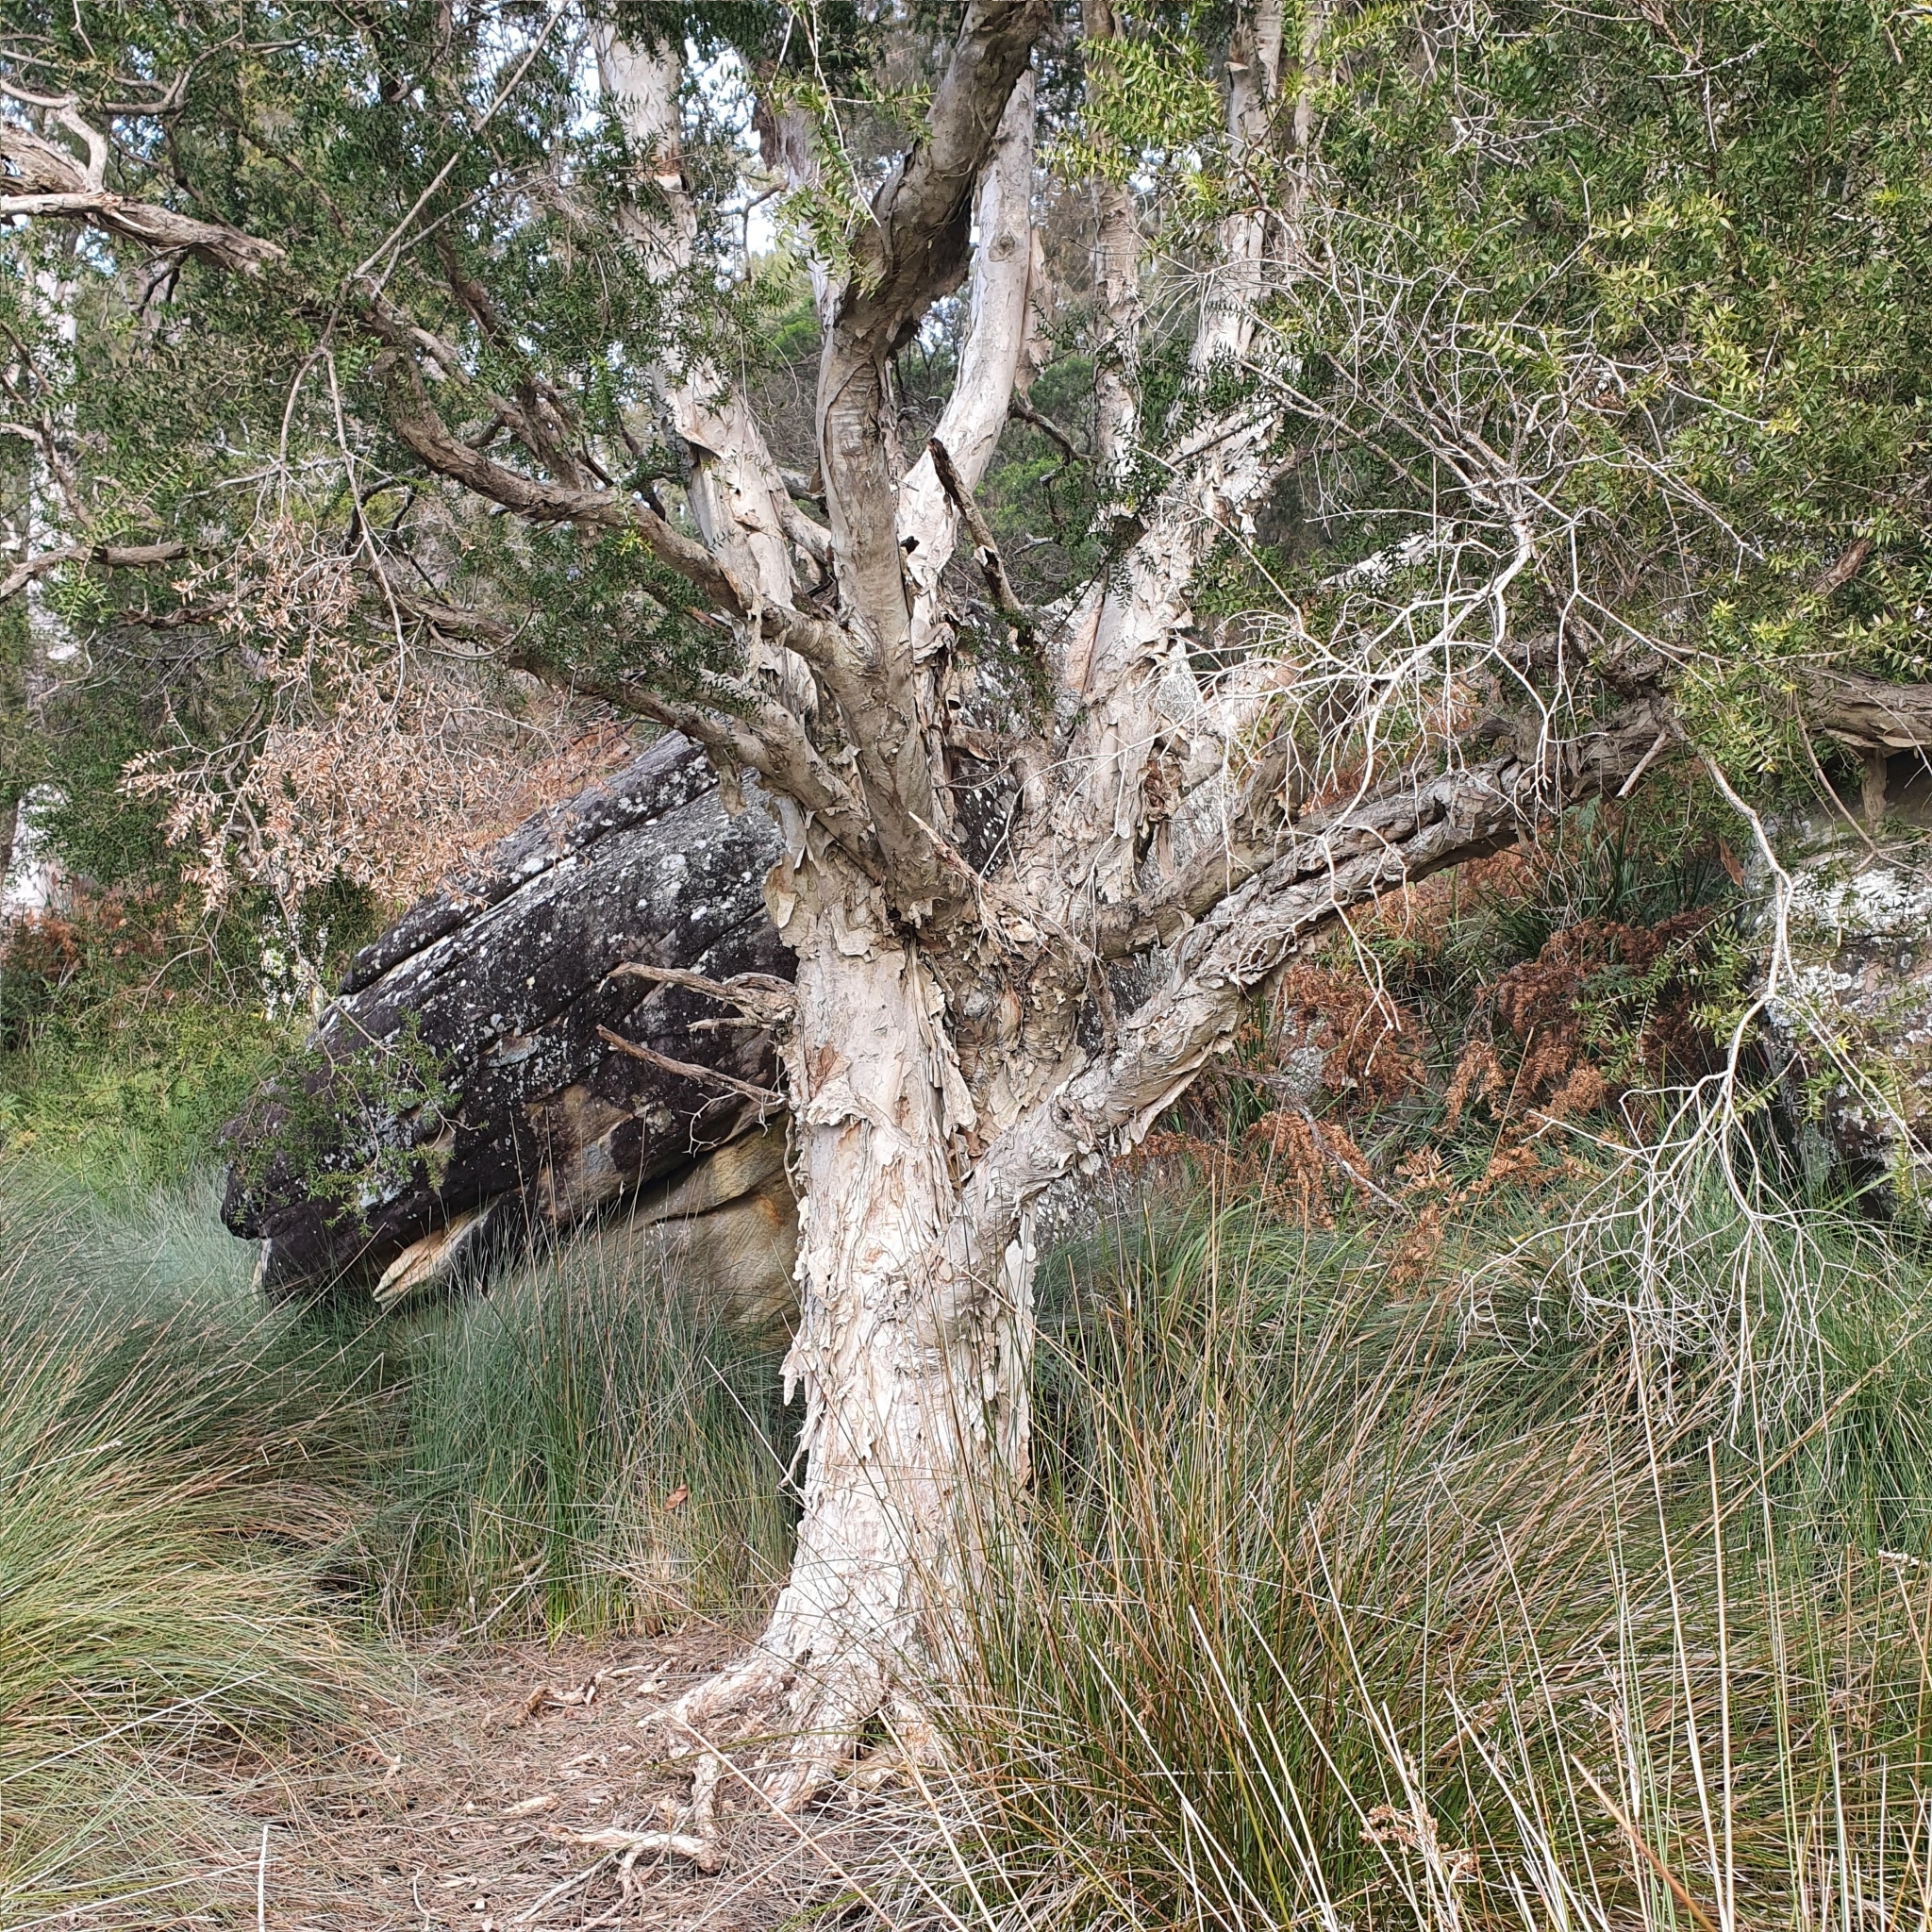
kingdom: Plantae
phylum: Tracheophyta
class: Magnoliopsida
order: Myrtales
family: Myrtaceae
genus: Melaleuca
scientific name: Melaleuca styphelioides
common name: Prickly paperbark
